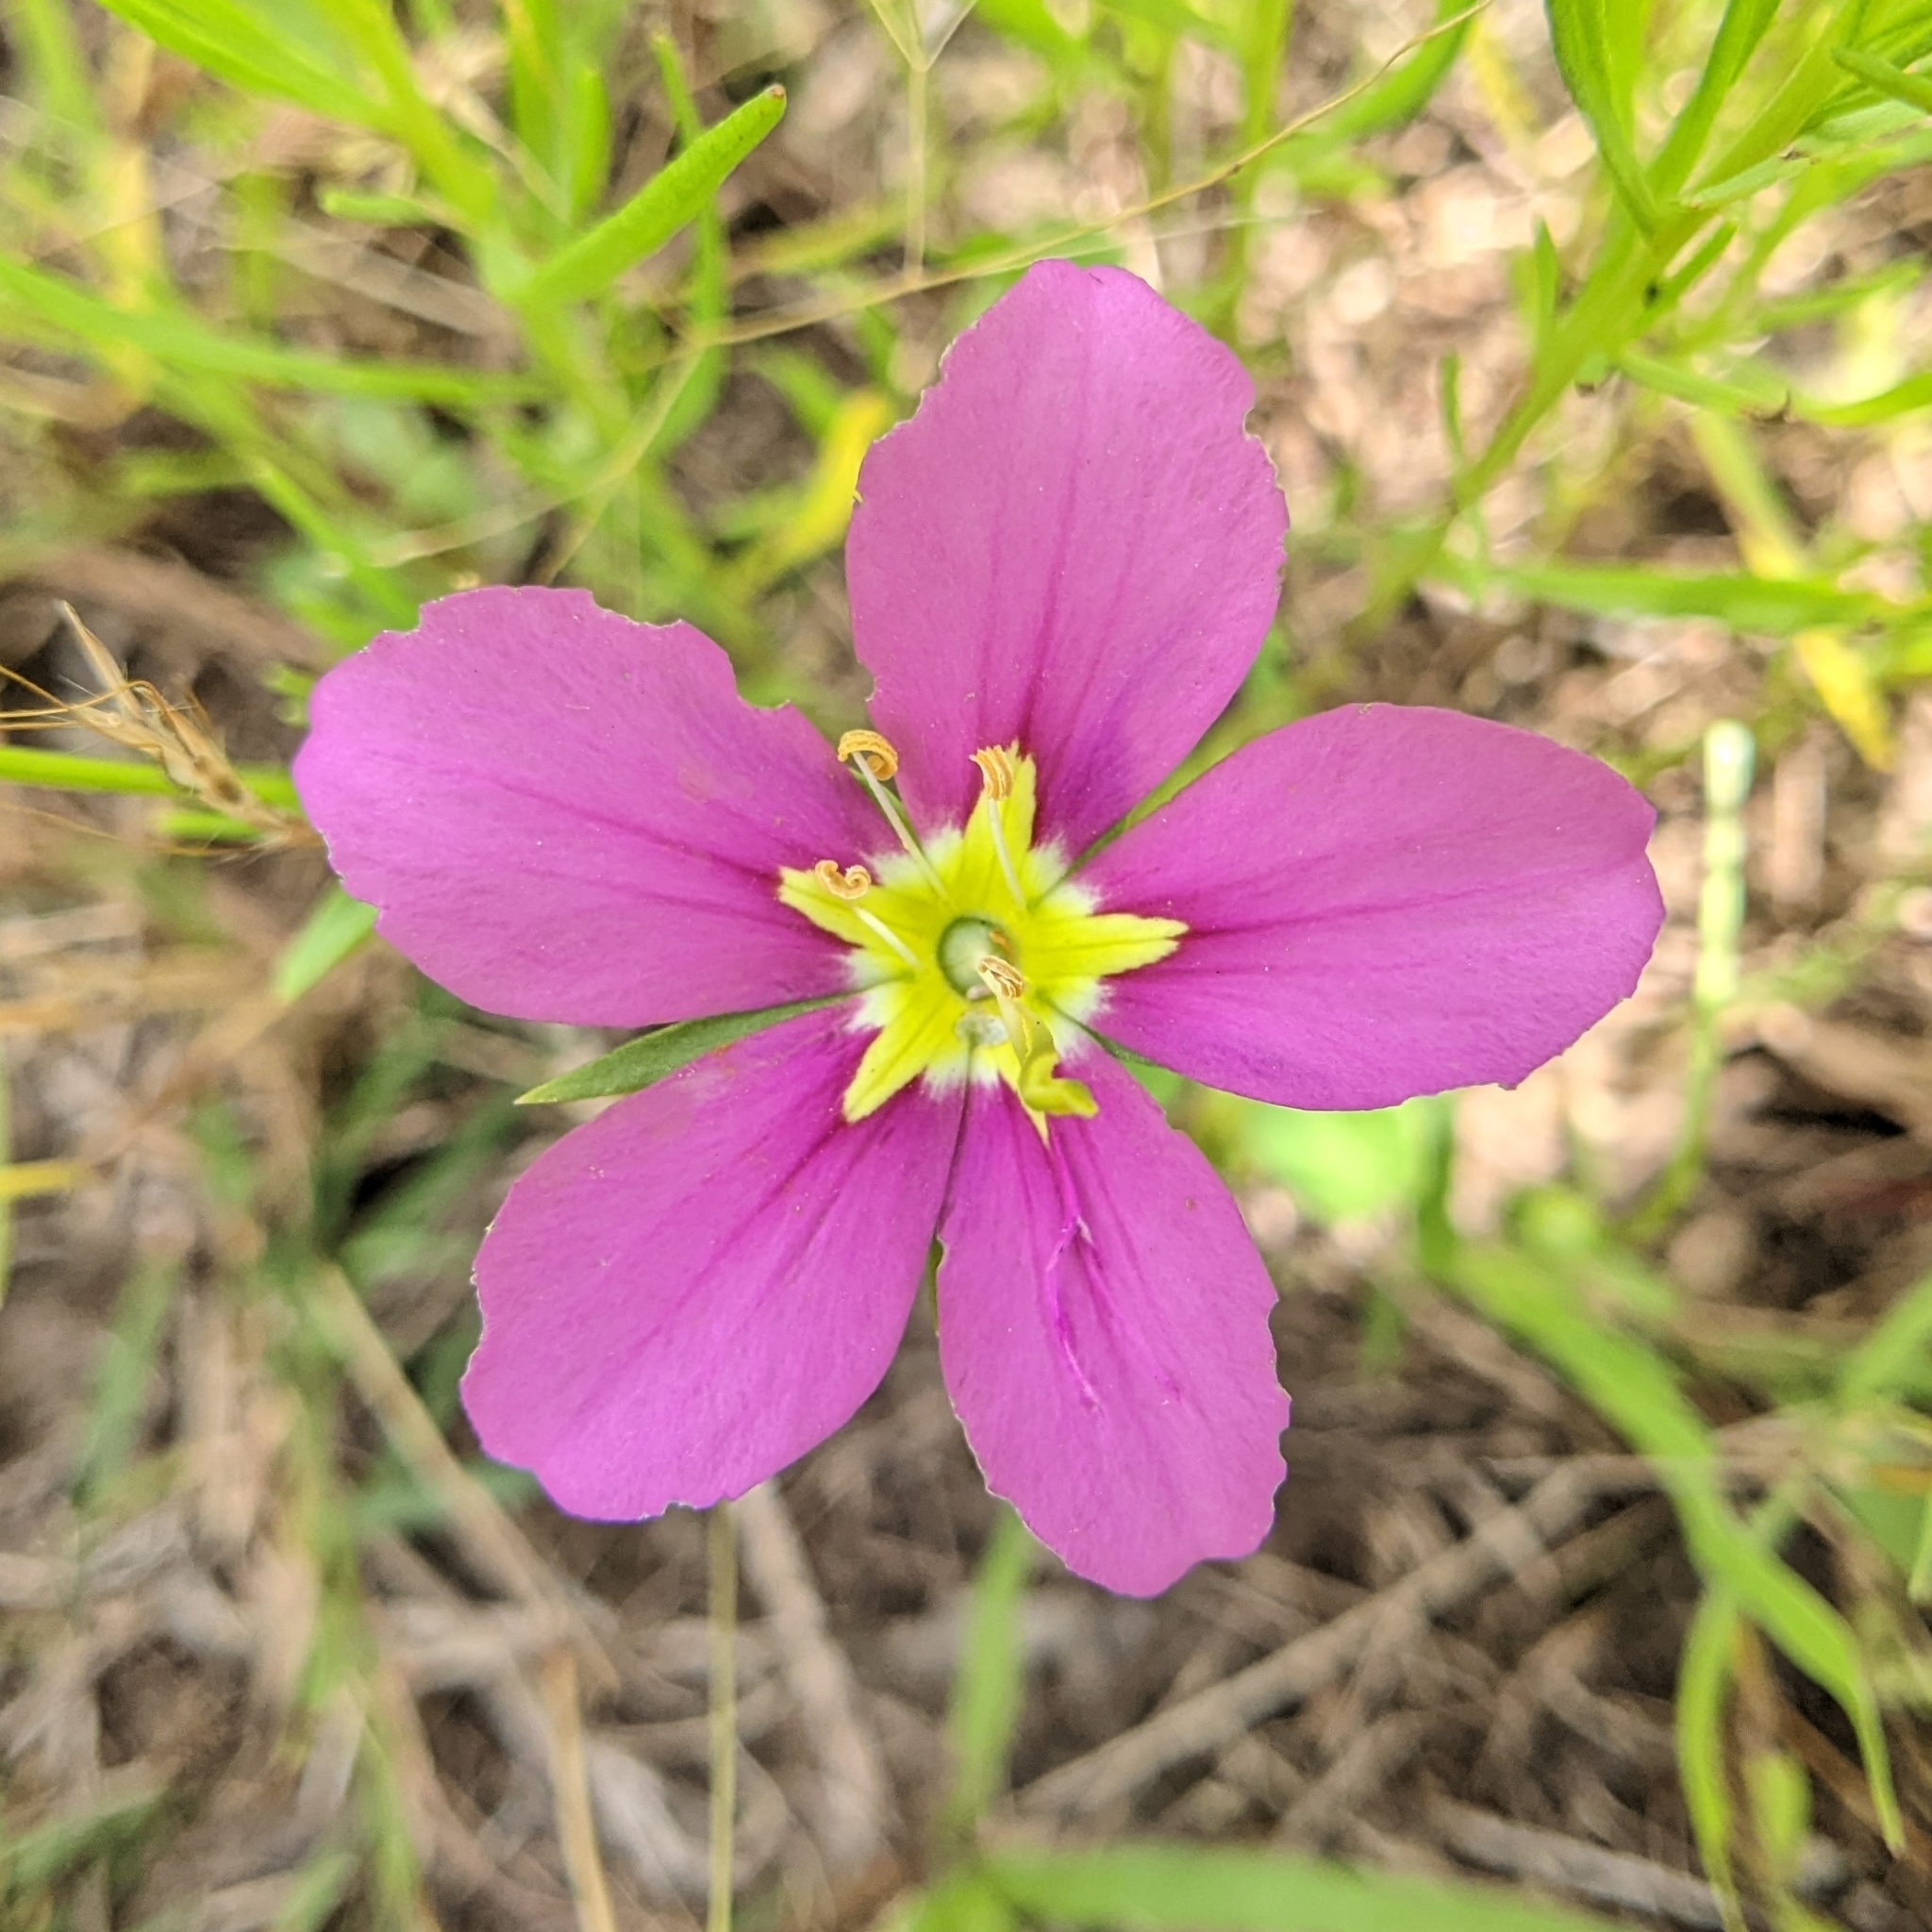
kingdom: Plantae
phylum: Tracheophyta
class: Magnoliopsida
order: Gentianales
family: Gentianaceae
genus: Sabatia
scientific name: Sabatia campestris
